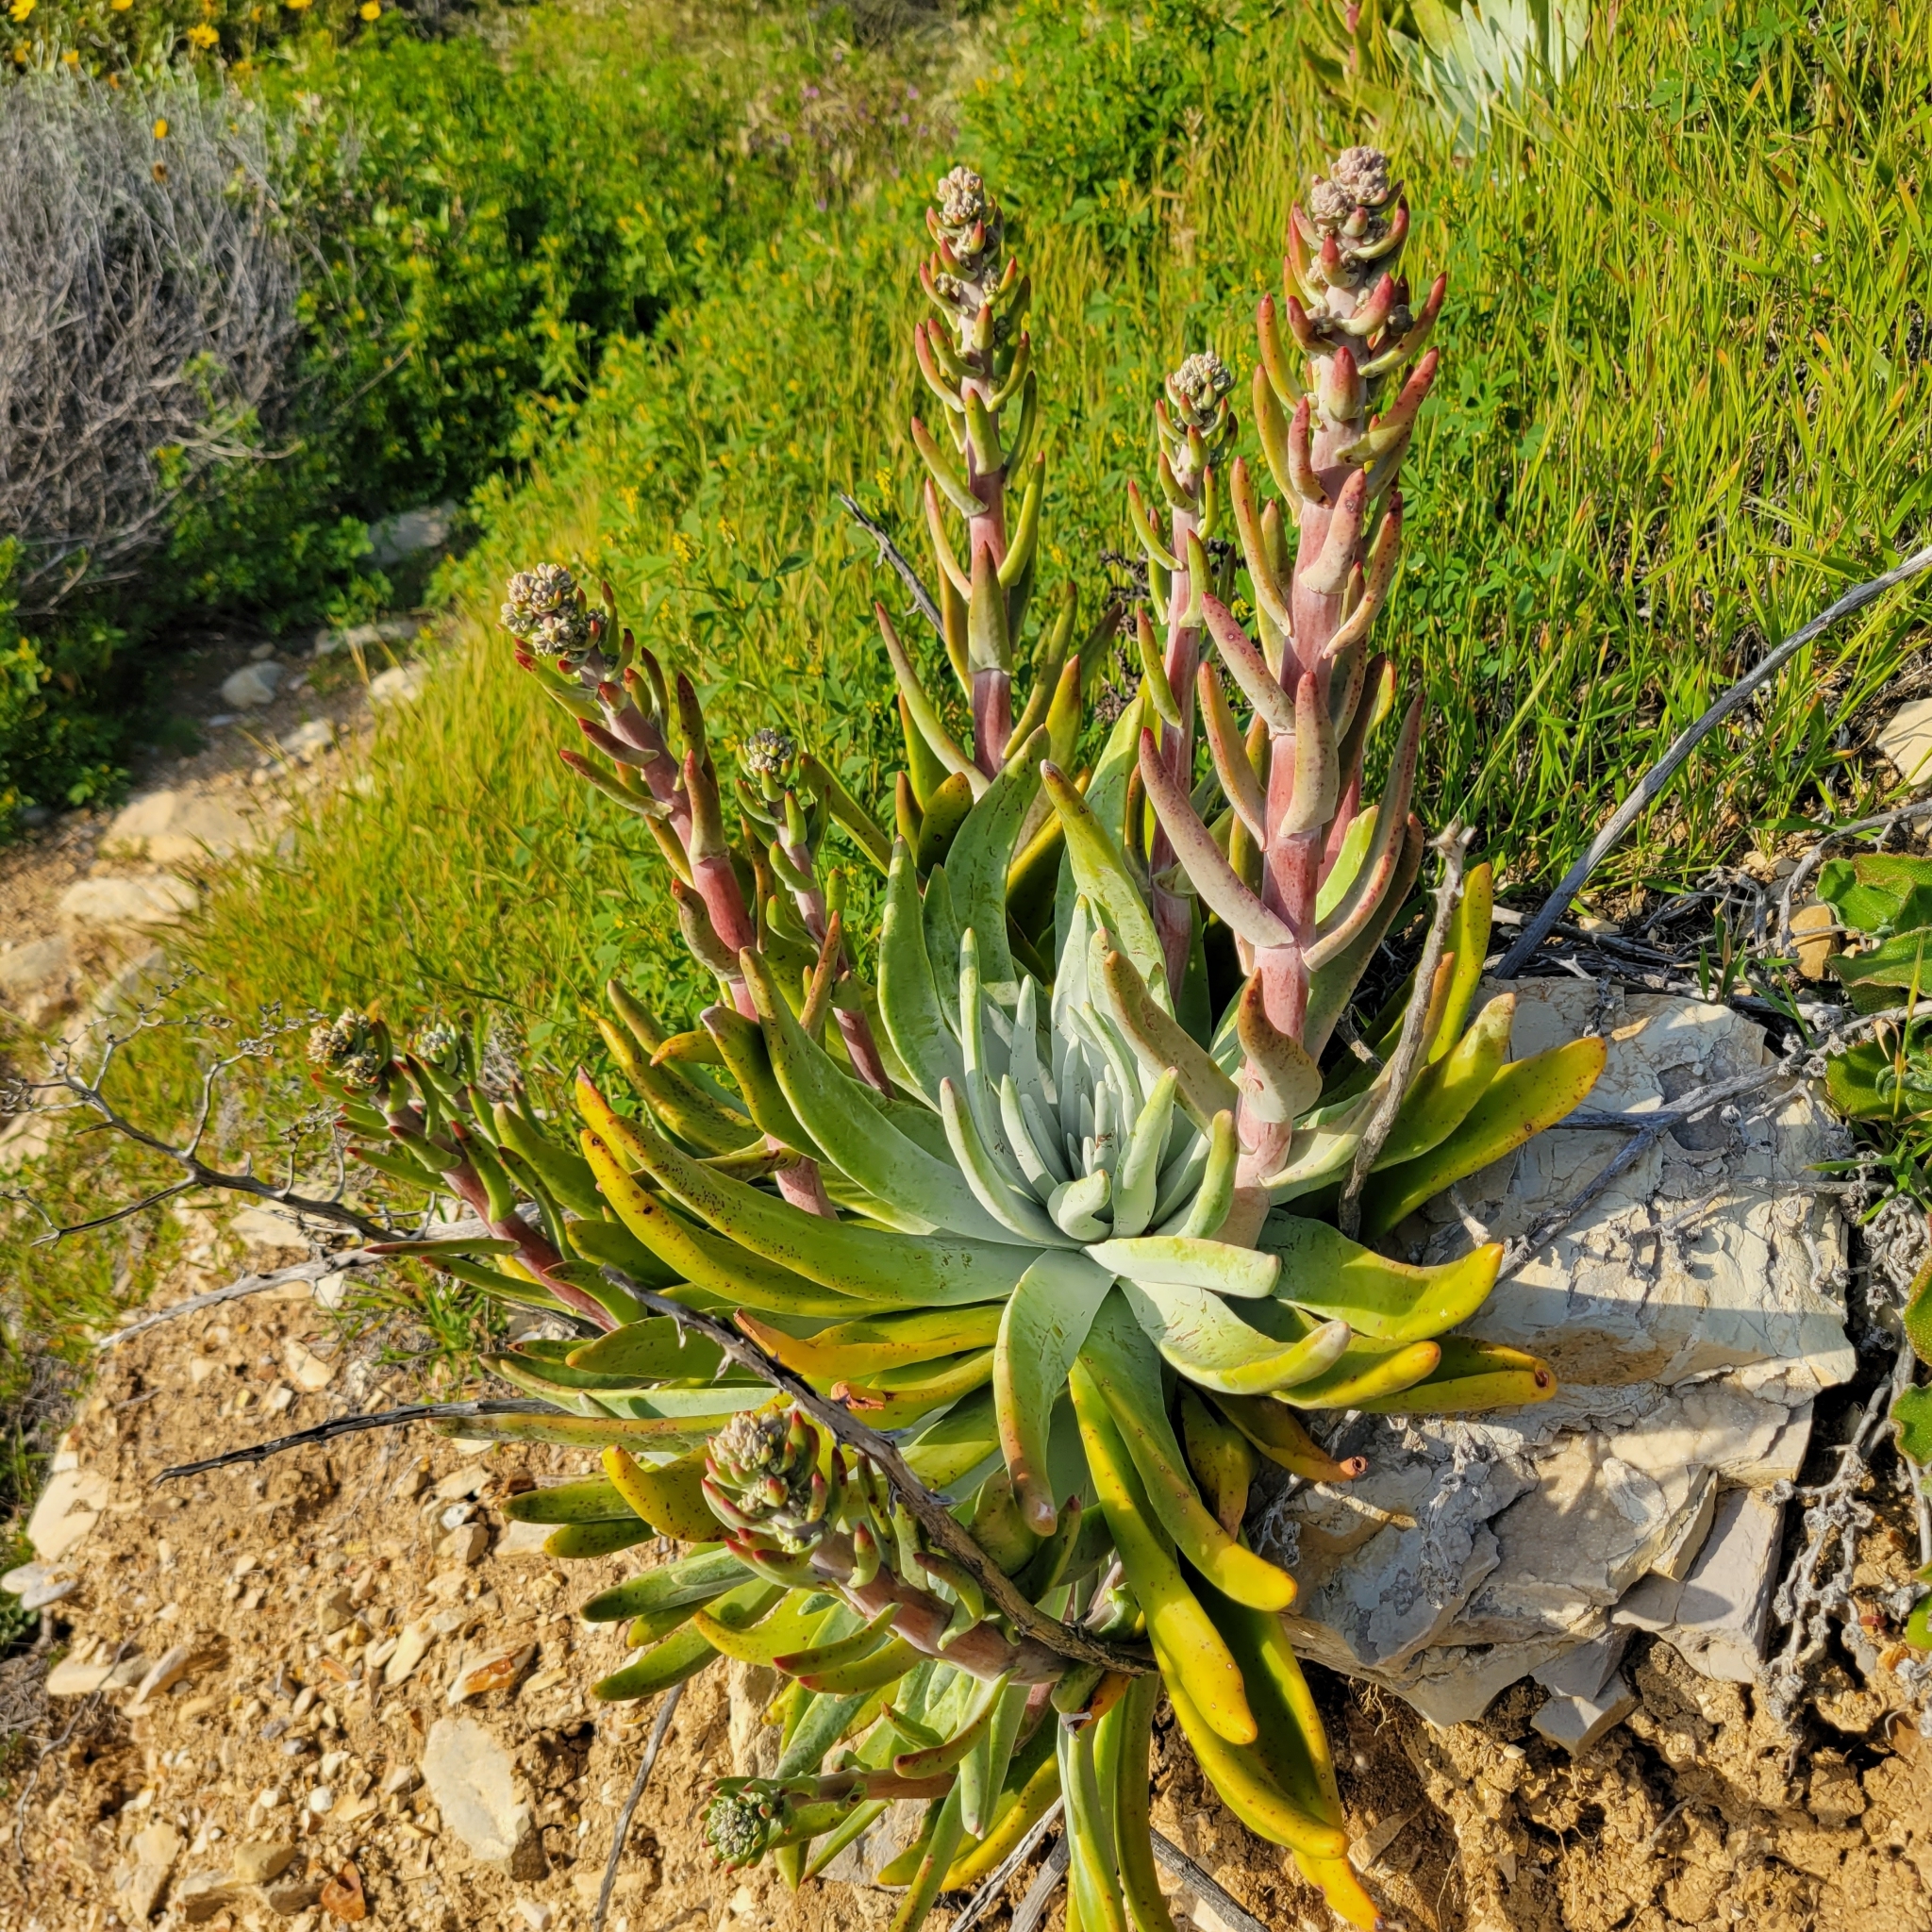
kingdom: Plantae
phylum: Tracheophyta
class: Magnoliopsida
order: Saxifragales
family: Crassulaceae
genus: Dudleya
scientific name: Dudleya virens
